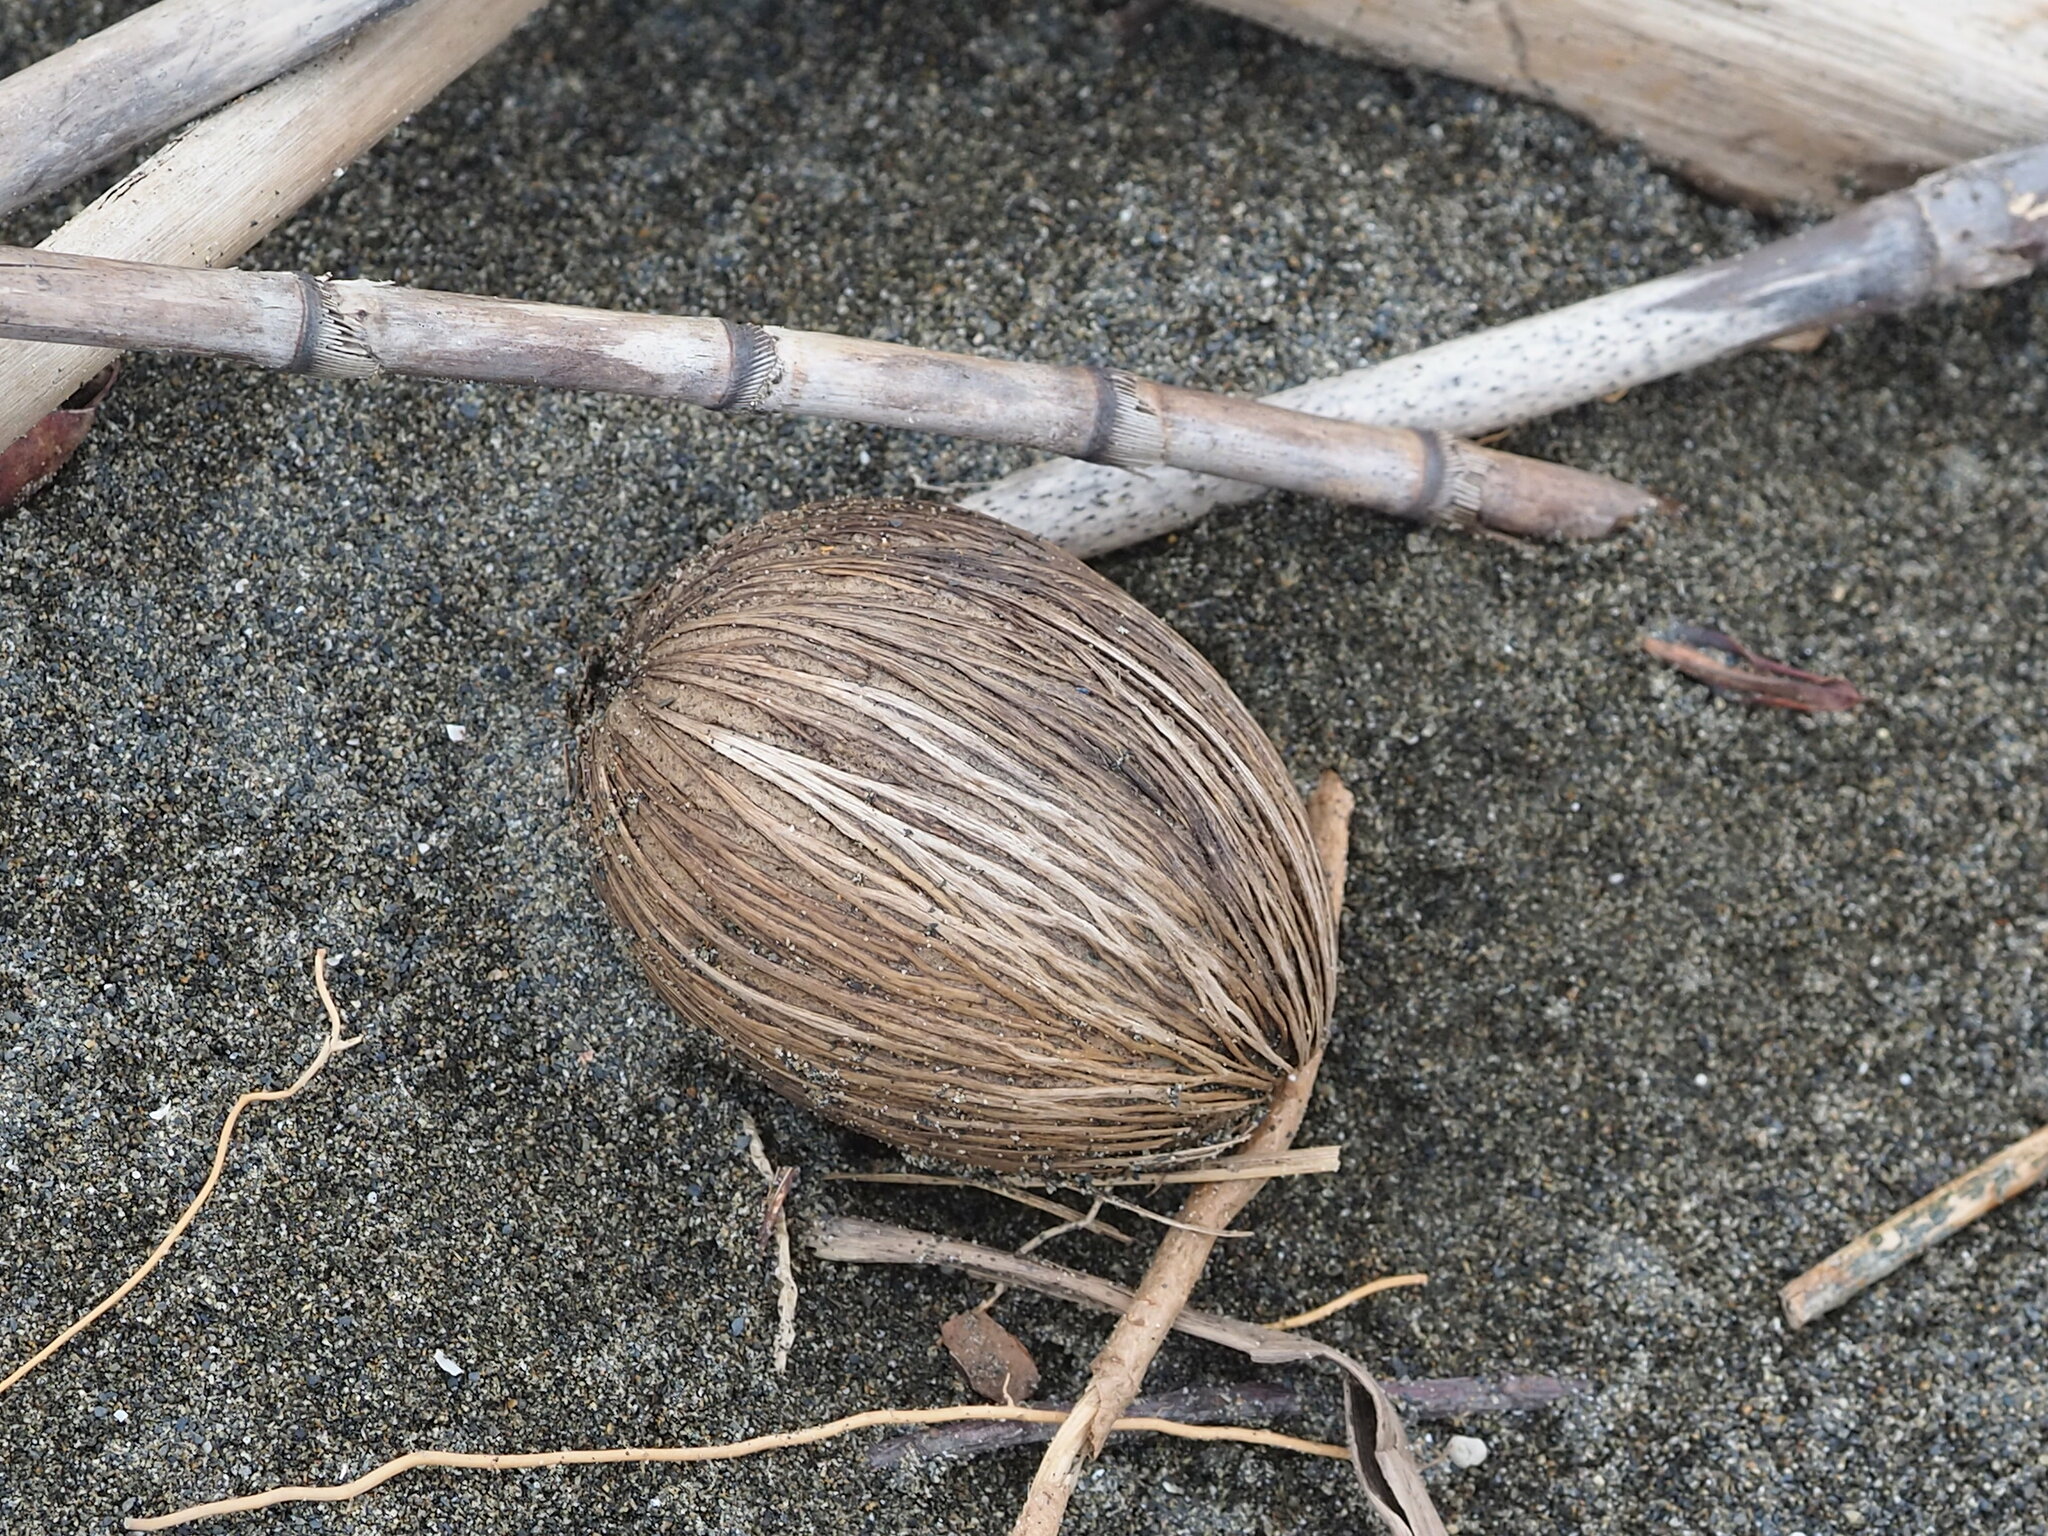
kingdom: Plantae
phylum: Tracheophyta
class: Magnoliopsida
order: Gentianales
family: Apocynaceae
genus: Cerbera
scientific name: Cerbera manghas
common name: Reva
